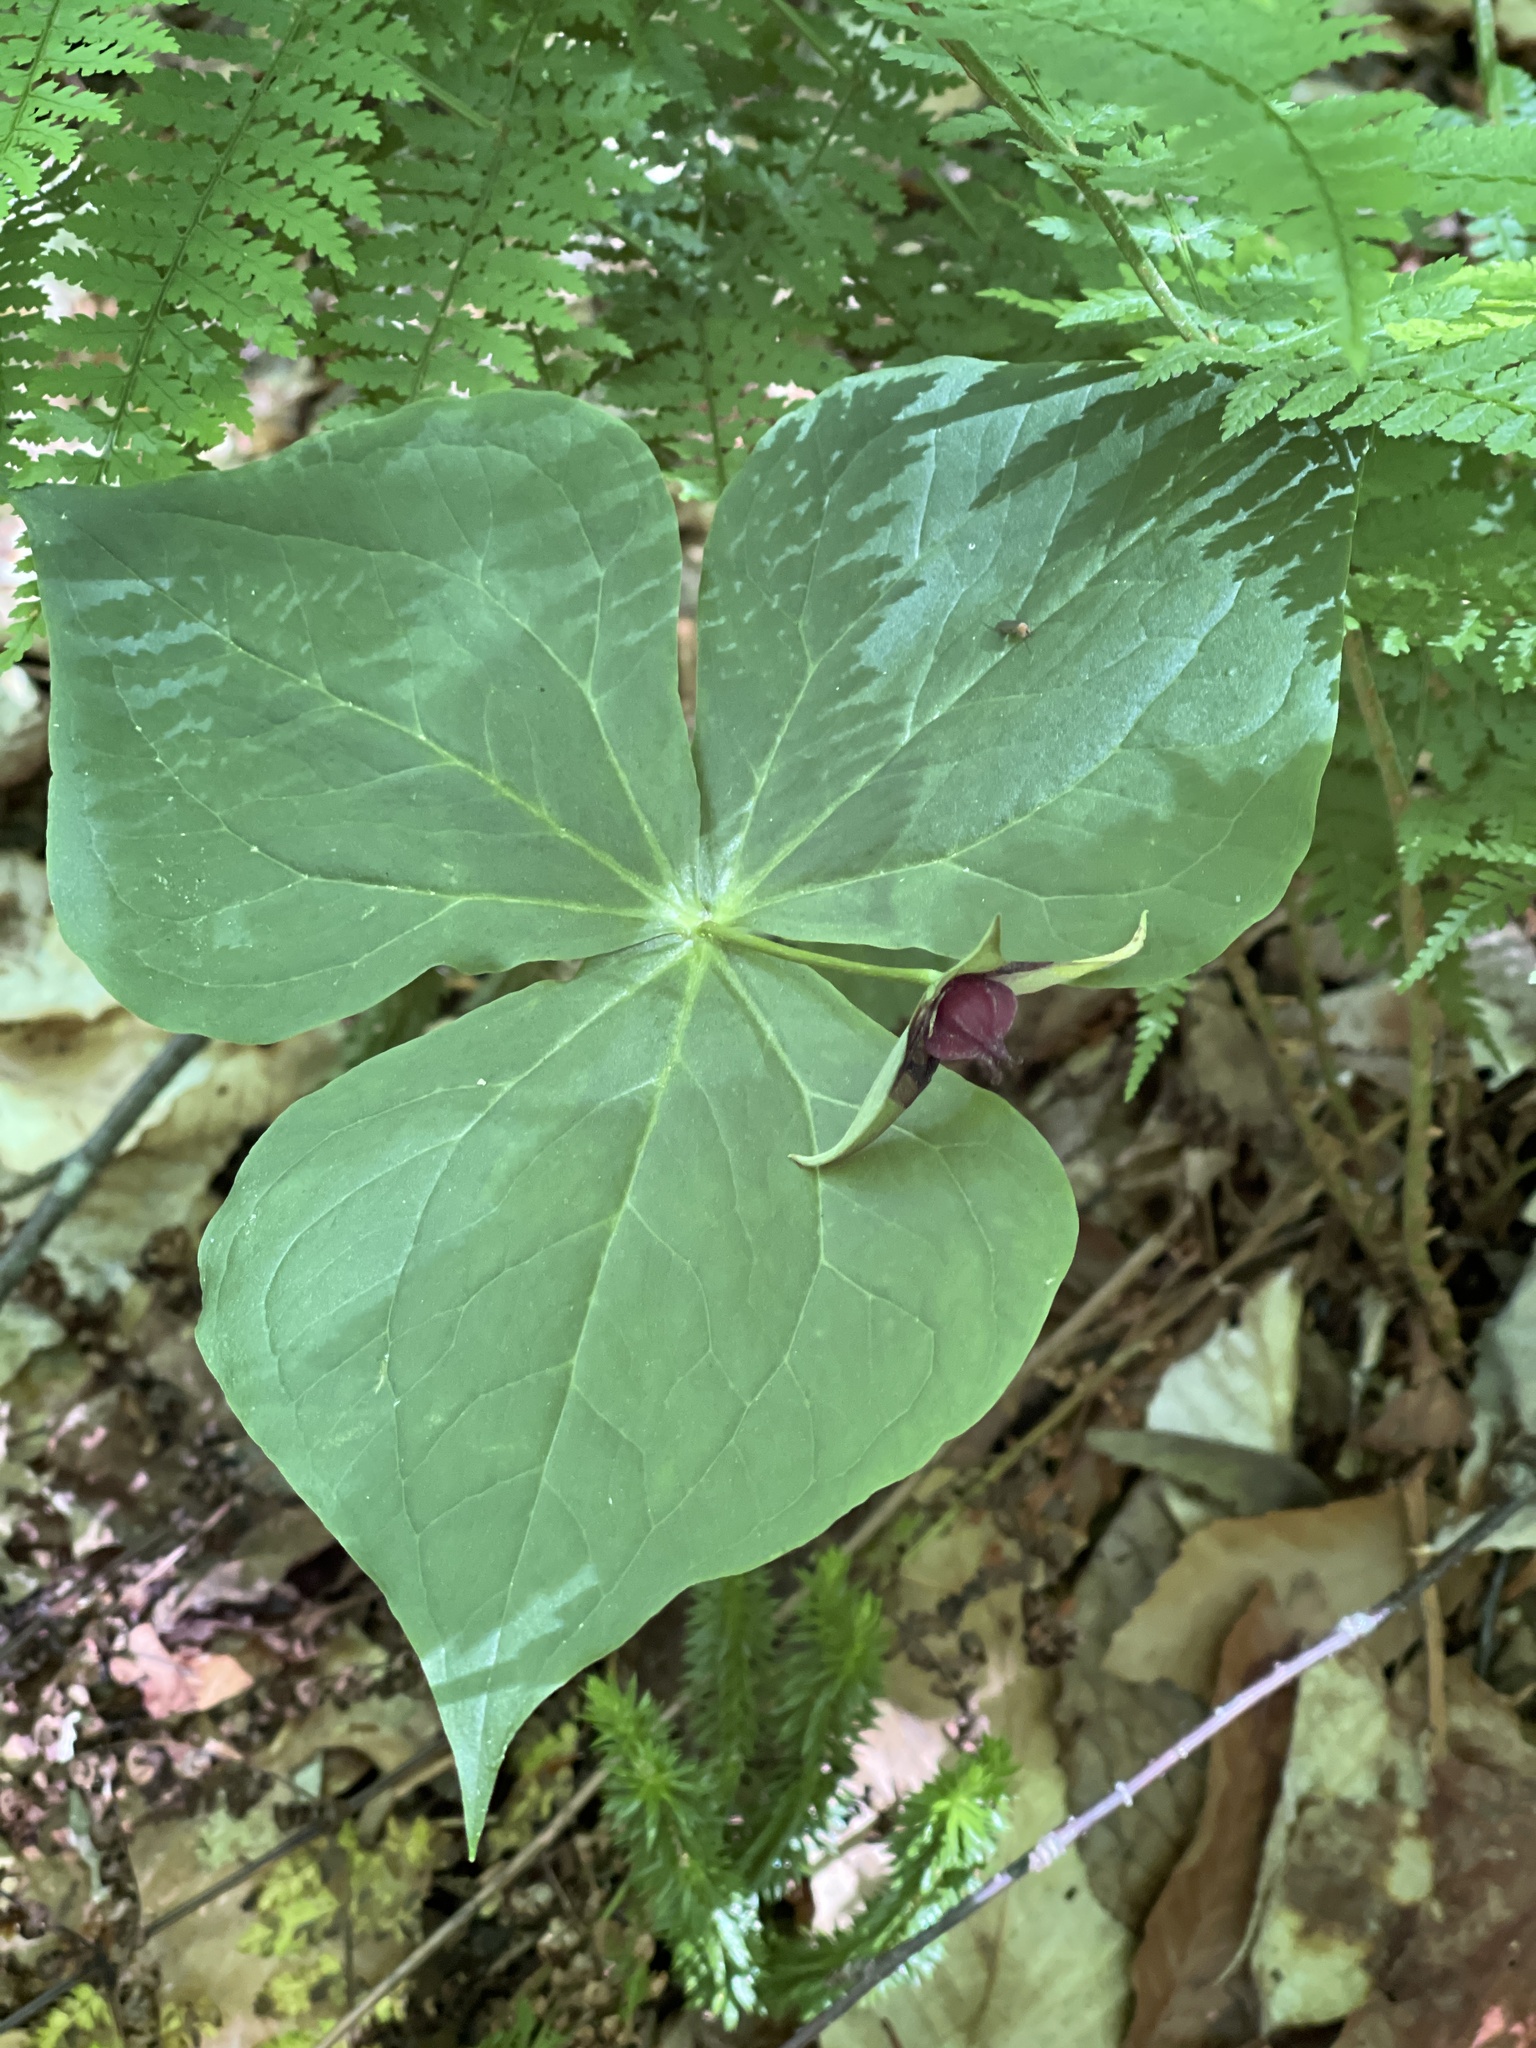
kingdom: Plantae
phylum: Tracheophyta
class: Liliopsida
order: Liliales
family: Melanthiaceae
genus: Trillium
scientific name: Trillium erectum
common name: Purple trillium
